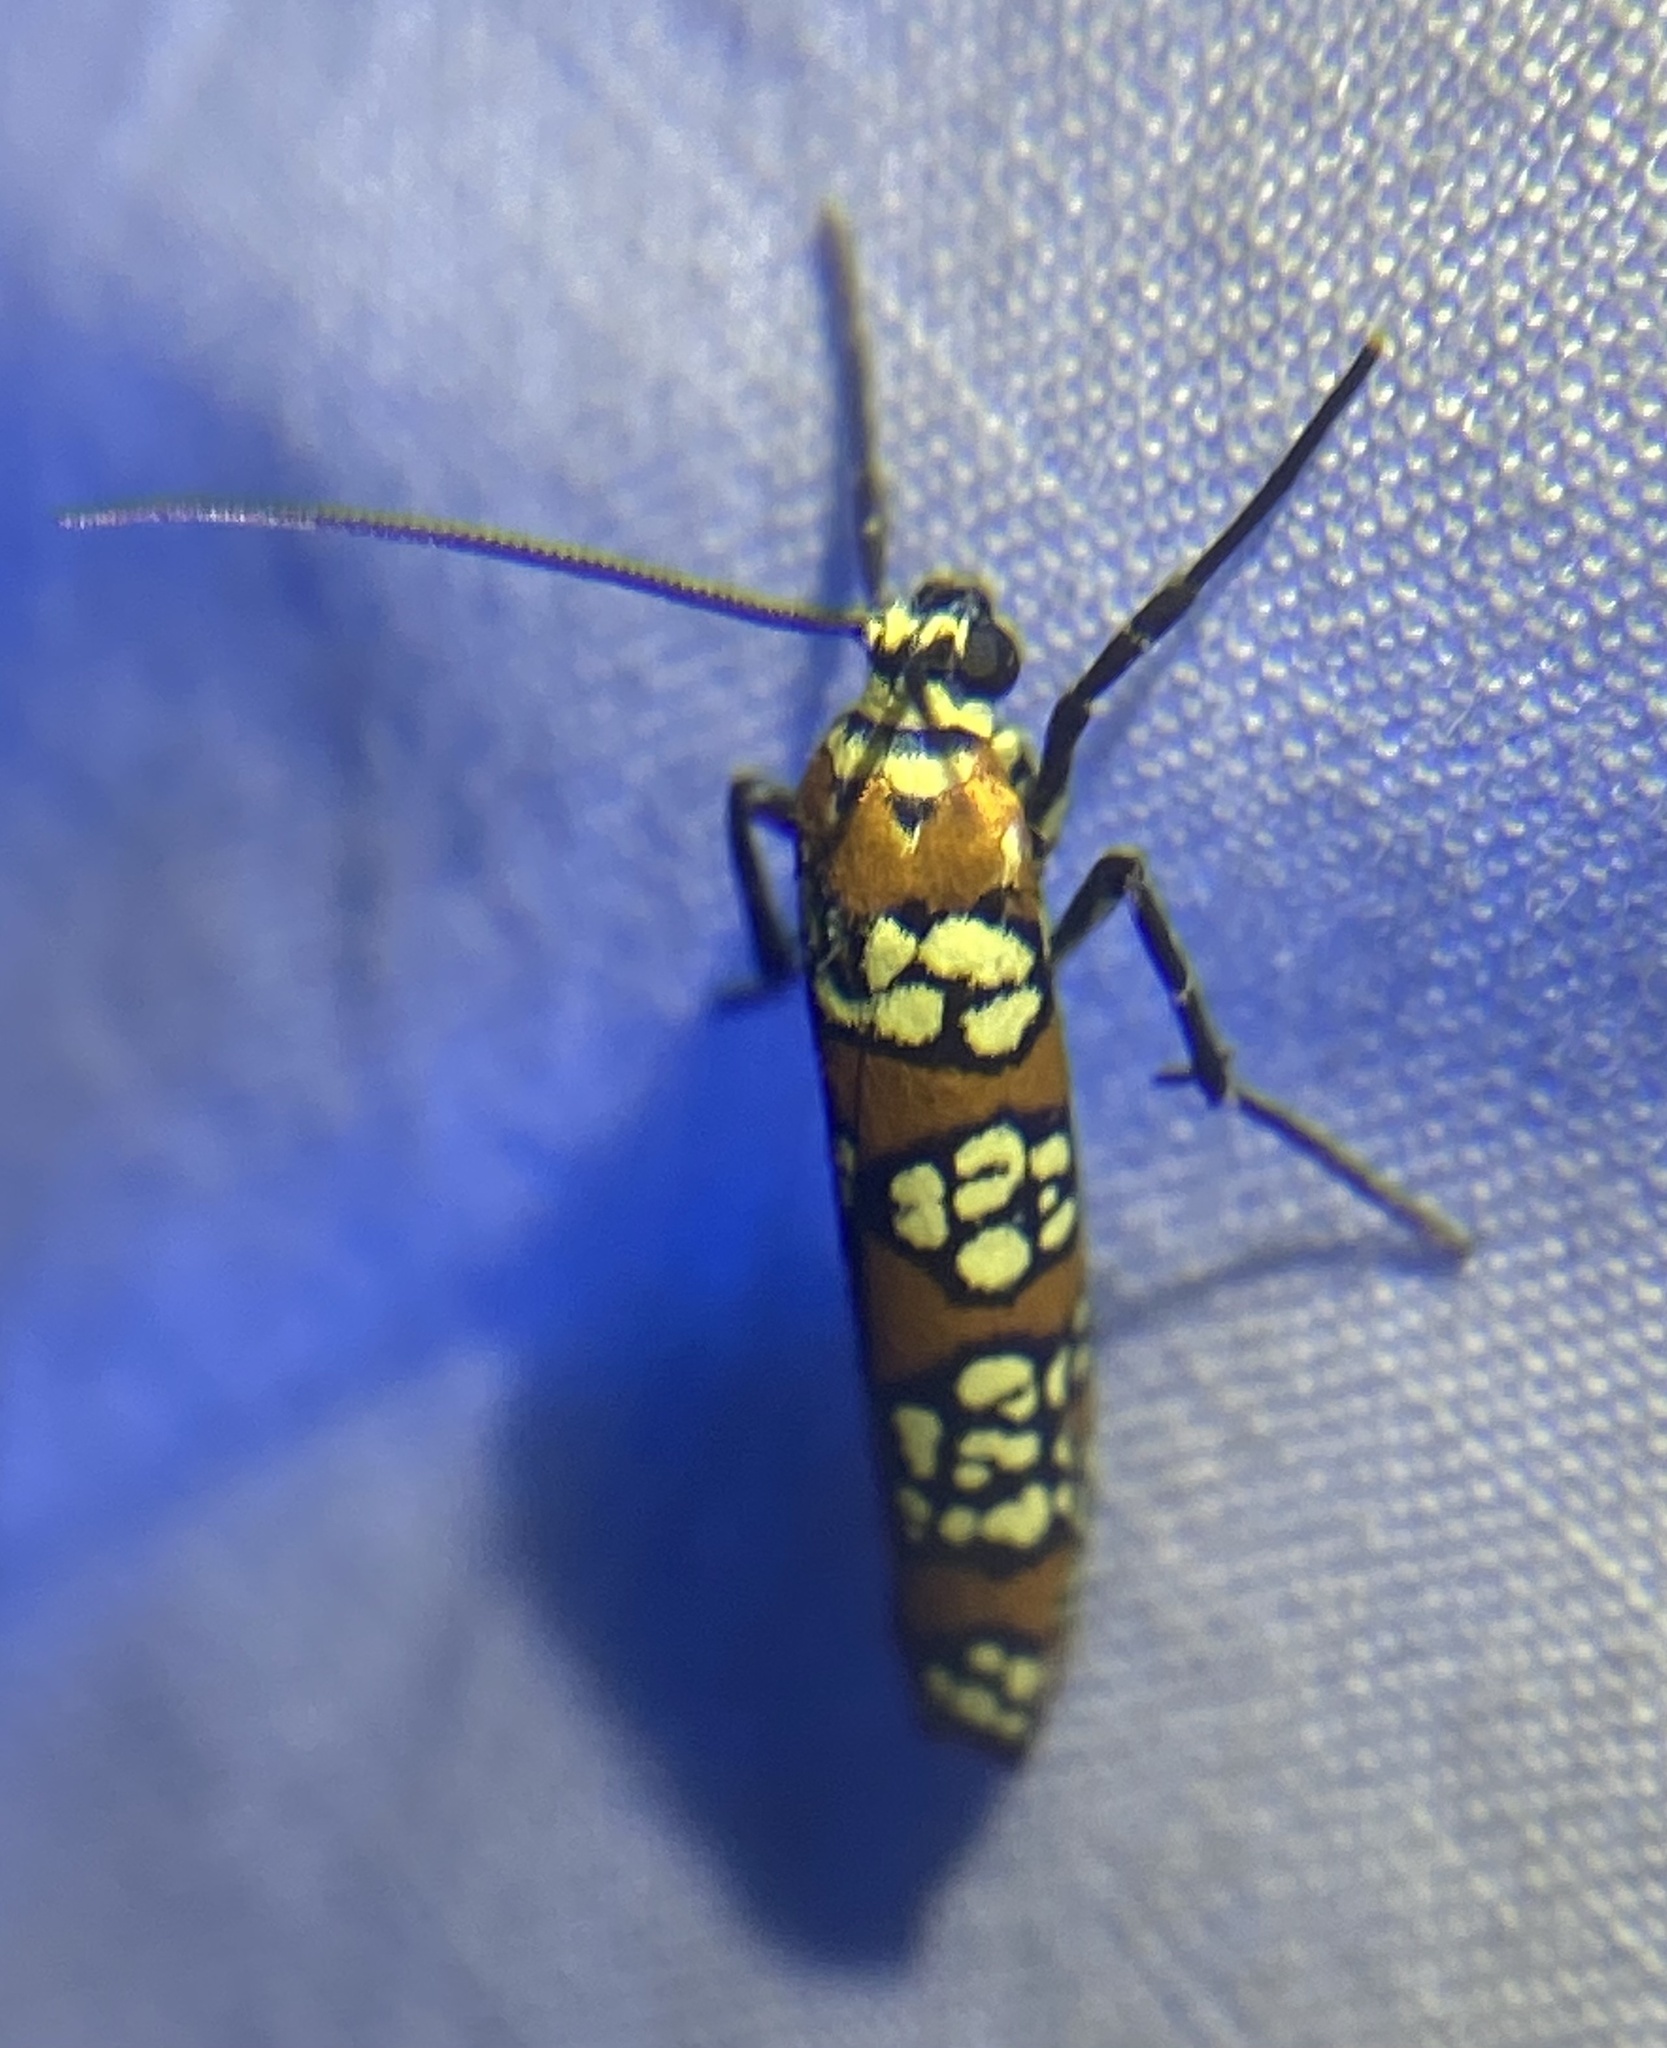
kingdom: Animalia
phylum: Arthropoda
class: Insecta
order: Lepidoptera
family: Attevidae
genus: Atteva
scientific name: Atteva punctella
